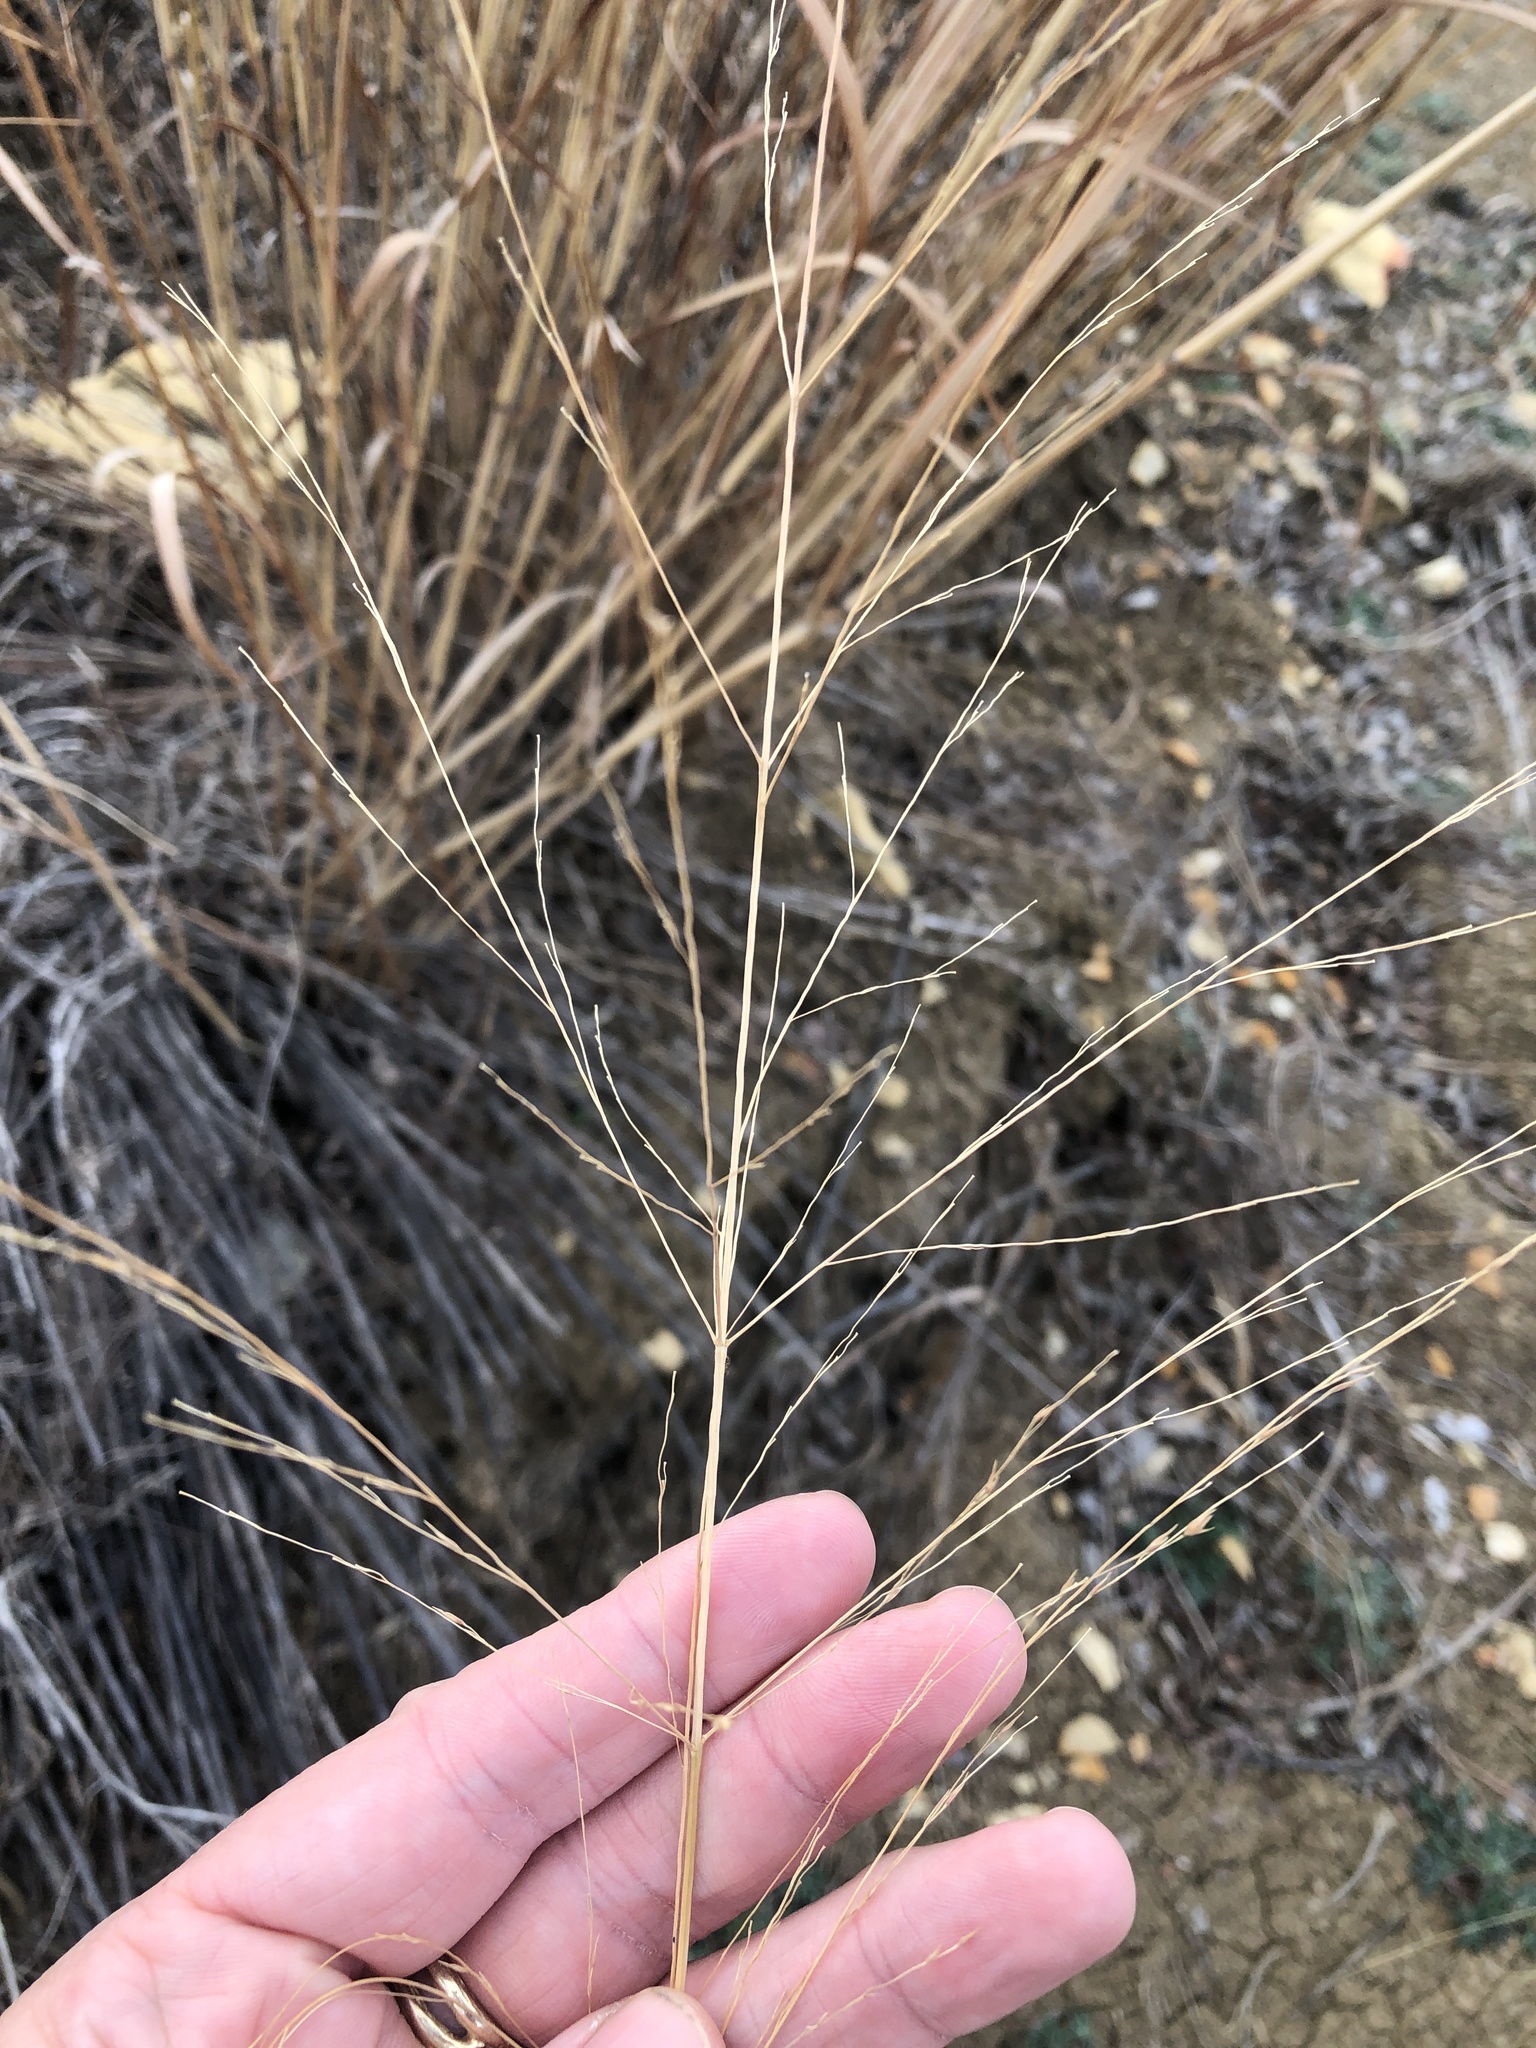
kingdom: Plantae
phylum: Tracheophyta
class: Liliopsida
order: Poales
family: Poaceae
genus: Panicum
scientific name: Panicum virgatum
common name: Switchgrass
